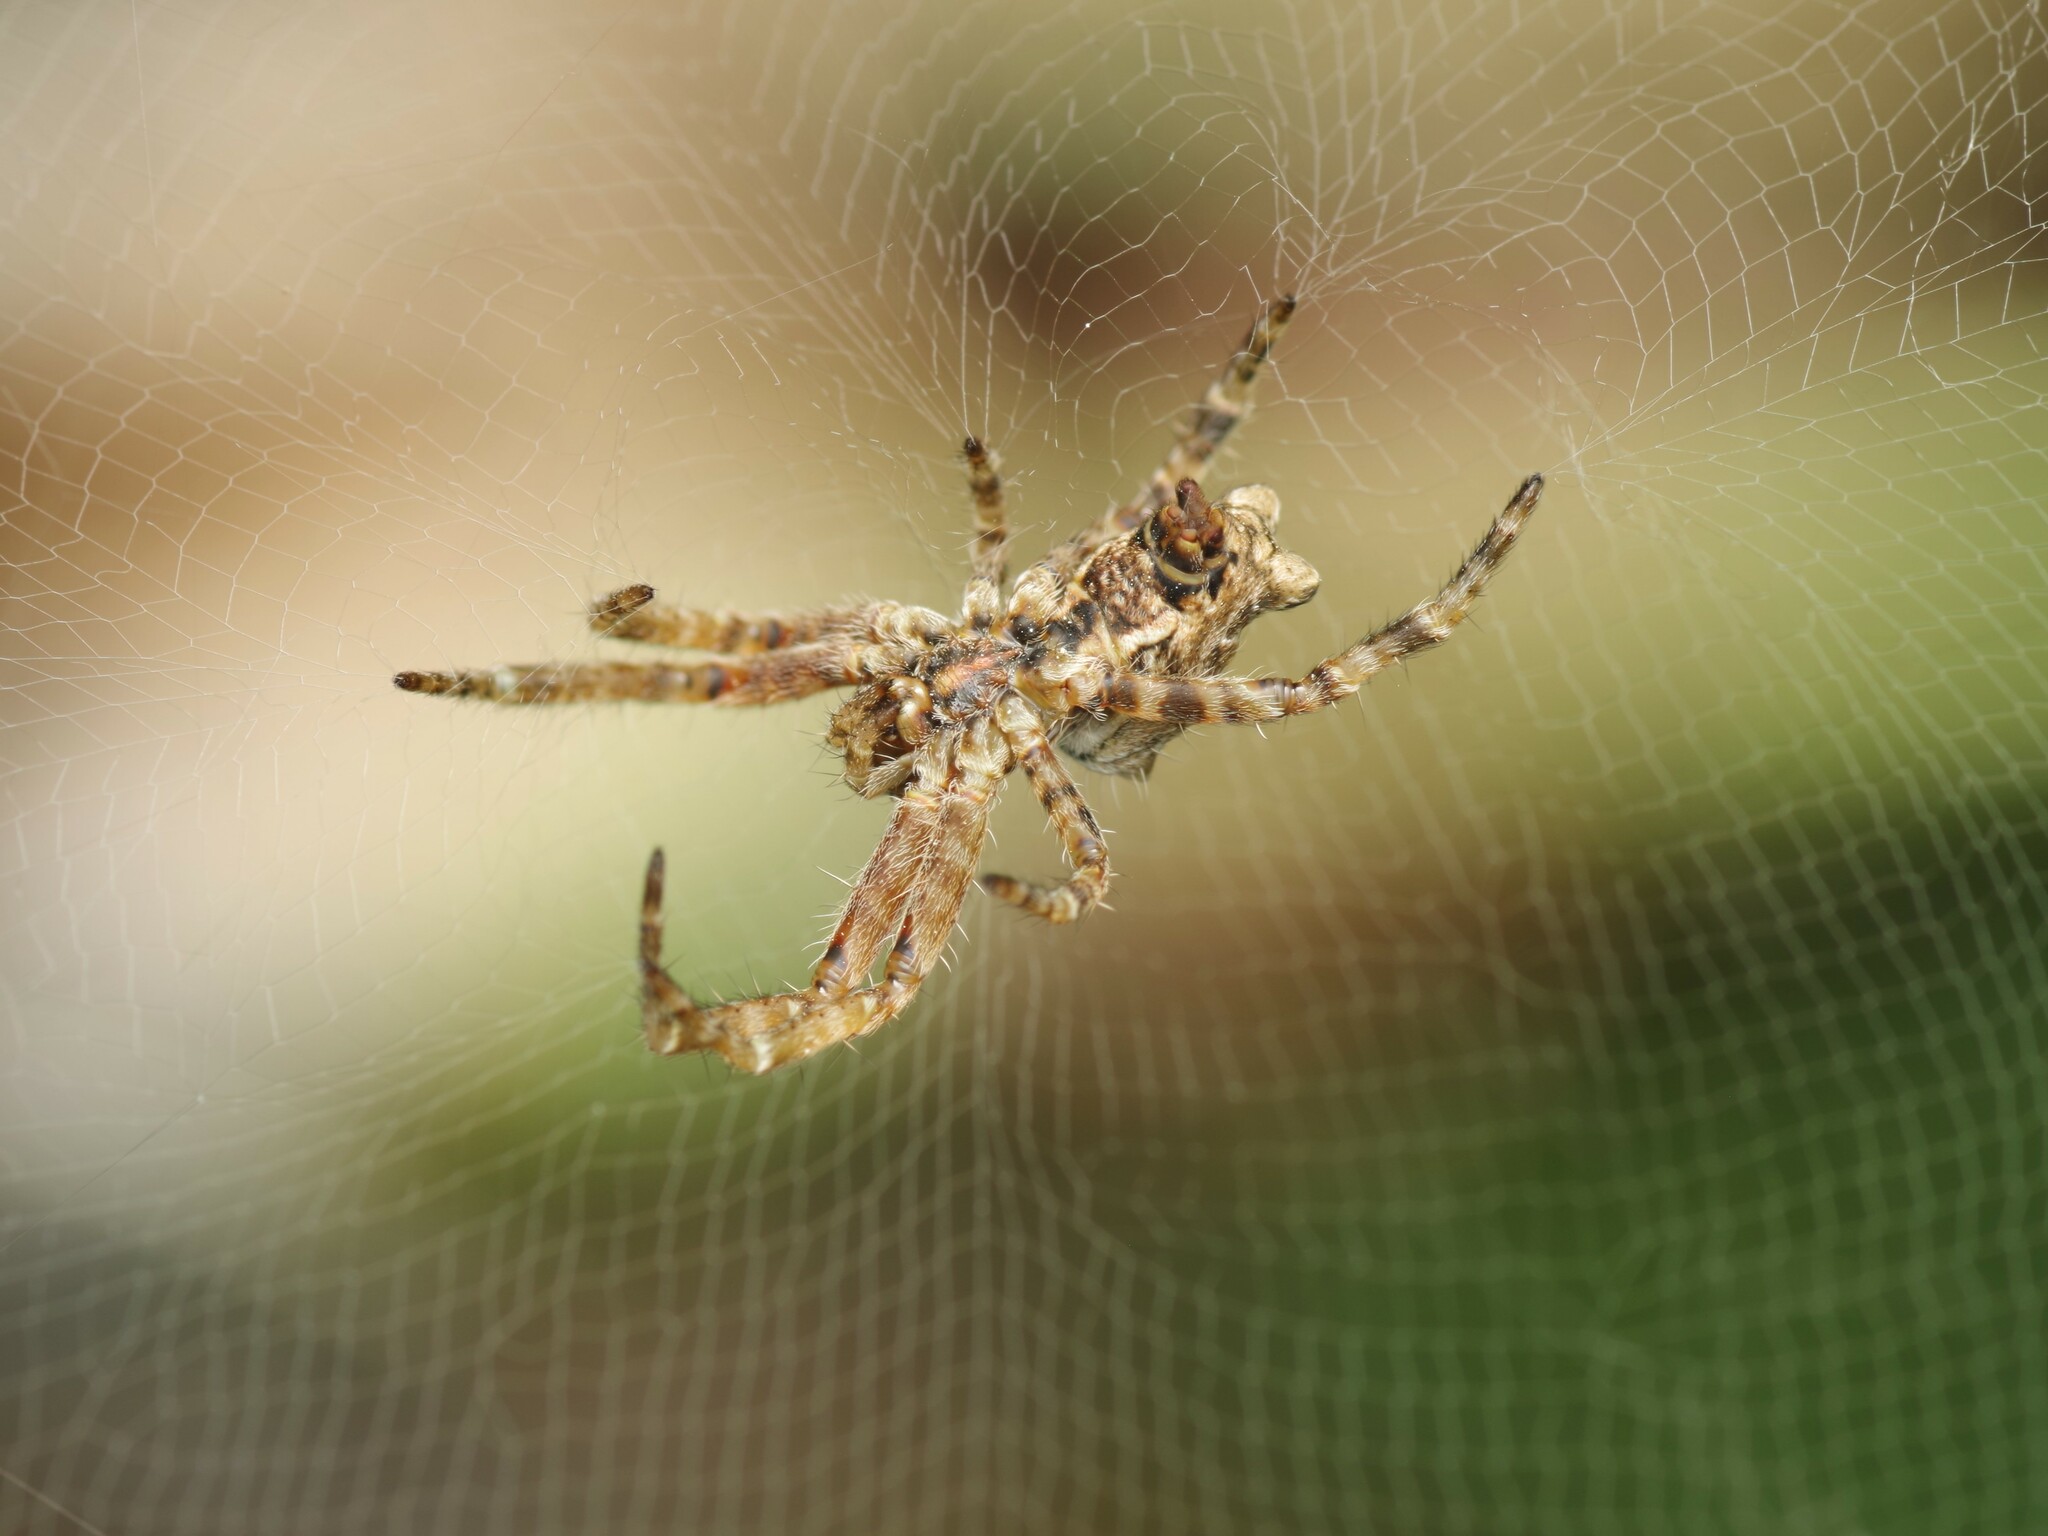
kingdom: Animalia
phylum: Arthropoda
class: Arachnida
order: Araneae
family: Araneidae
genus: Cyrtophora
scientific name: Cyrtophora citricola
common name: Orb weavers
